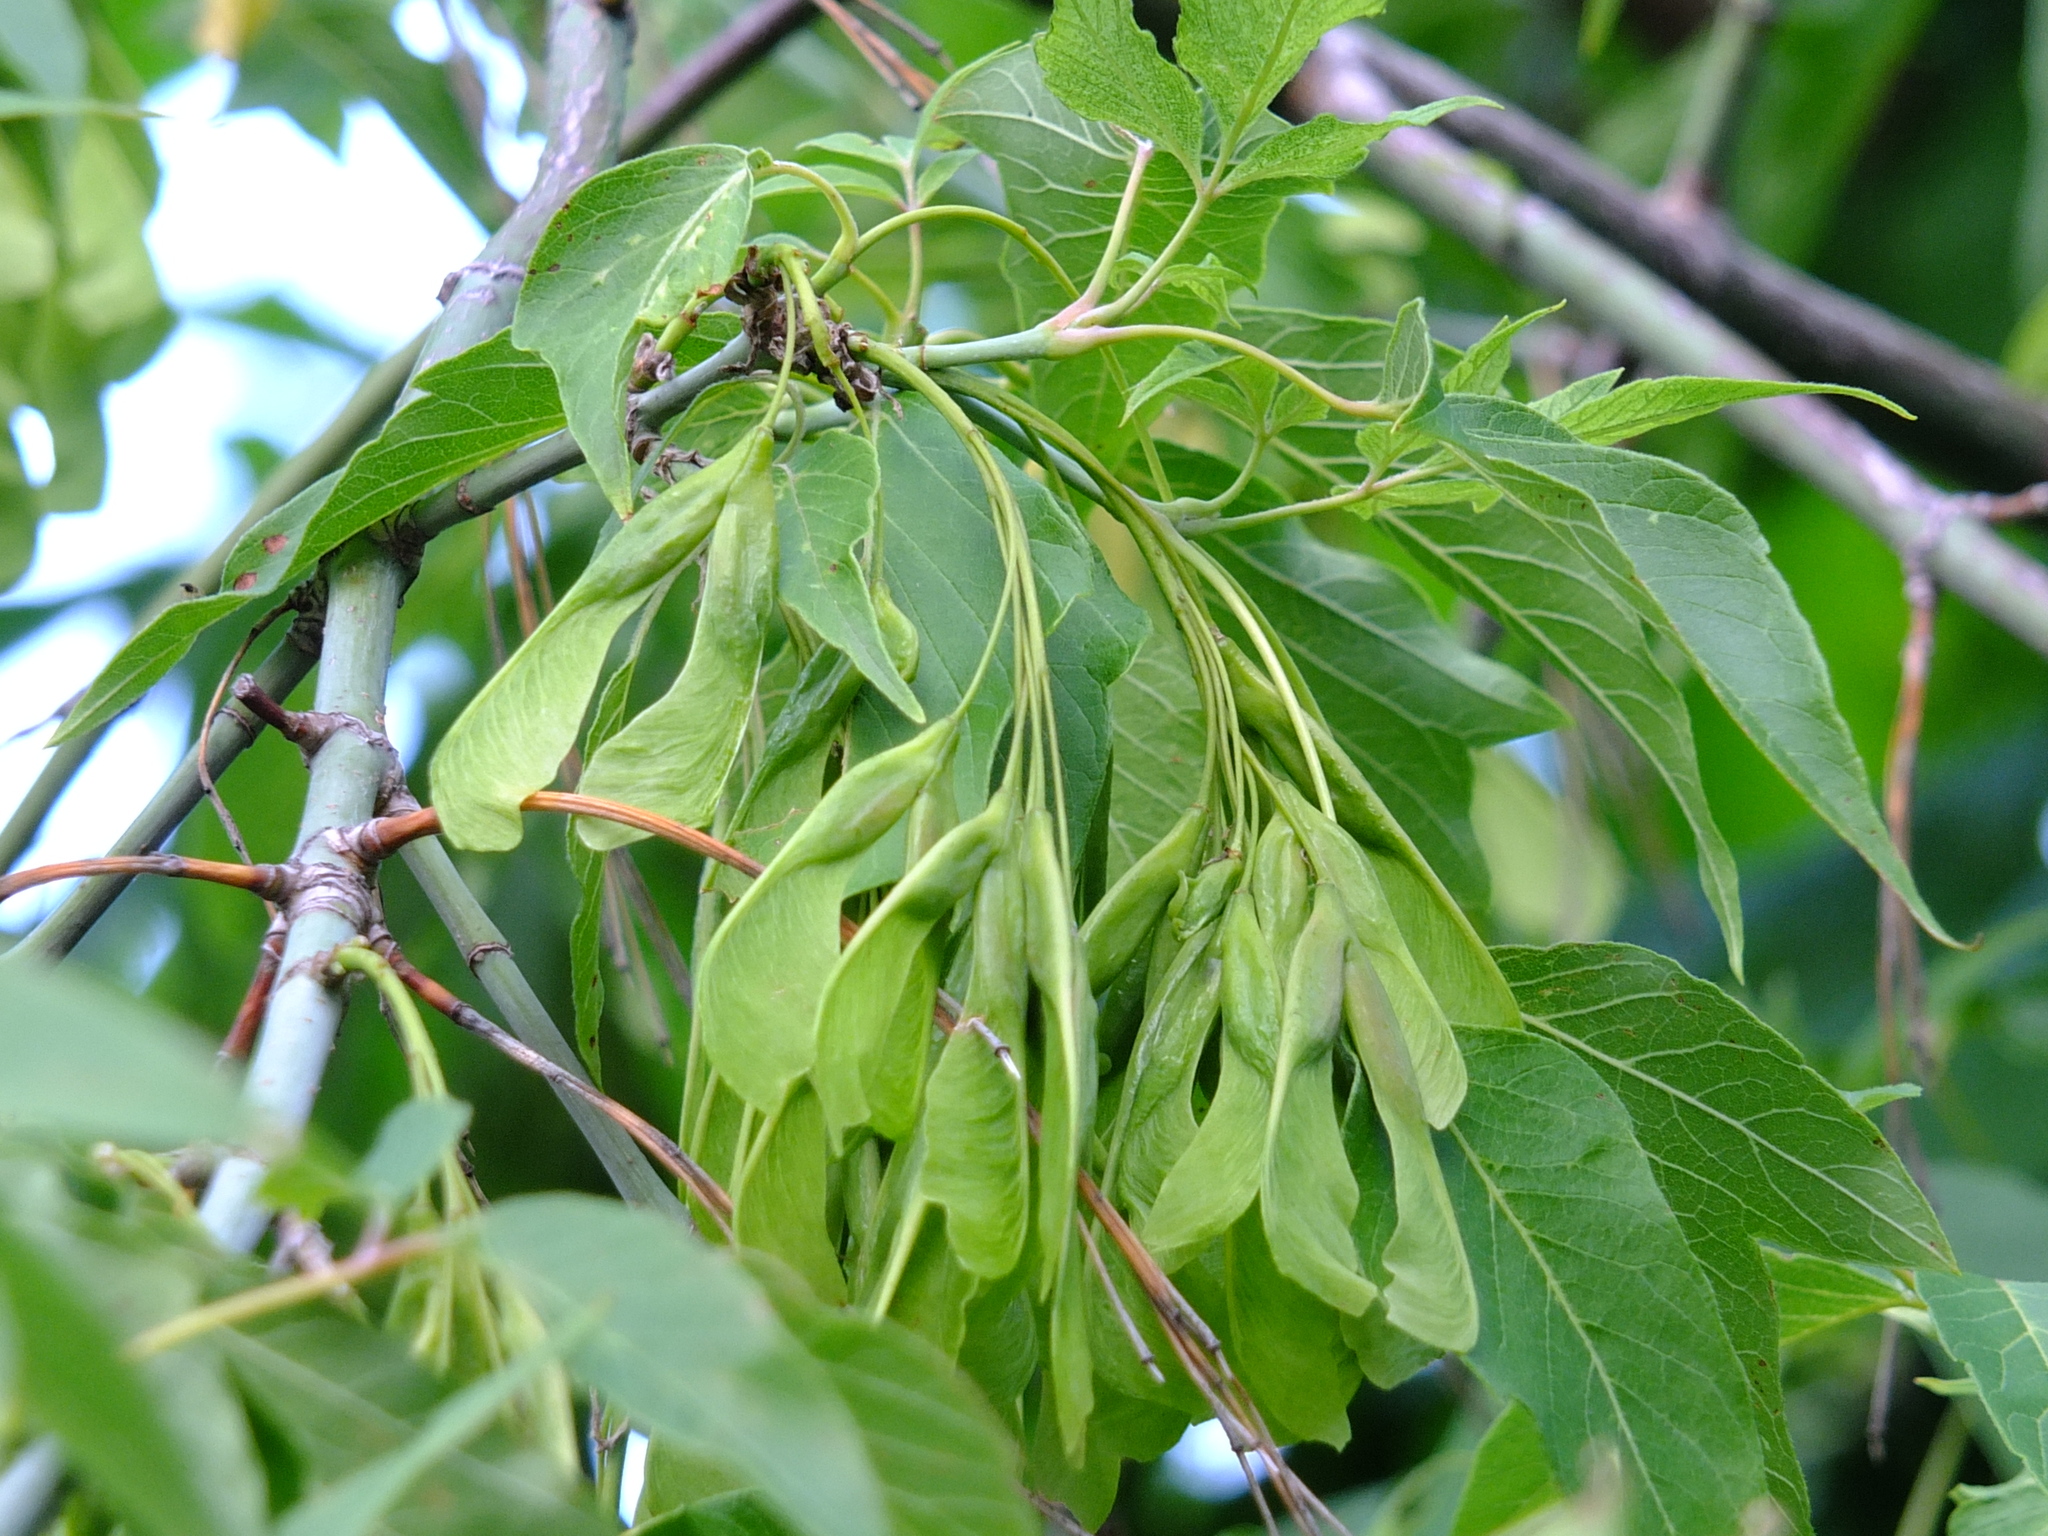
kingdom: Plantae
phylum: Tracheophyta
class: Magnoliopsida
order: Sapindales
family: Sapindaceae
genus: Acer
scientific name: Acer negundo
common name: Ashleaf maple
